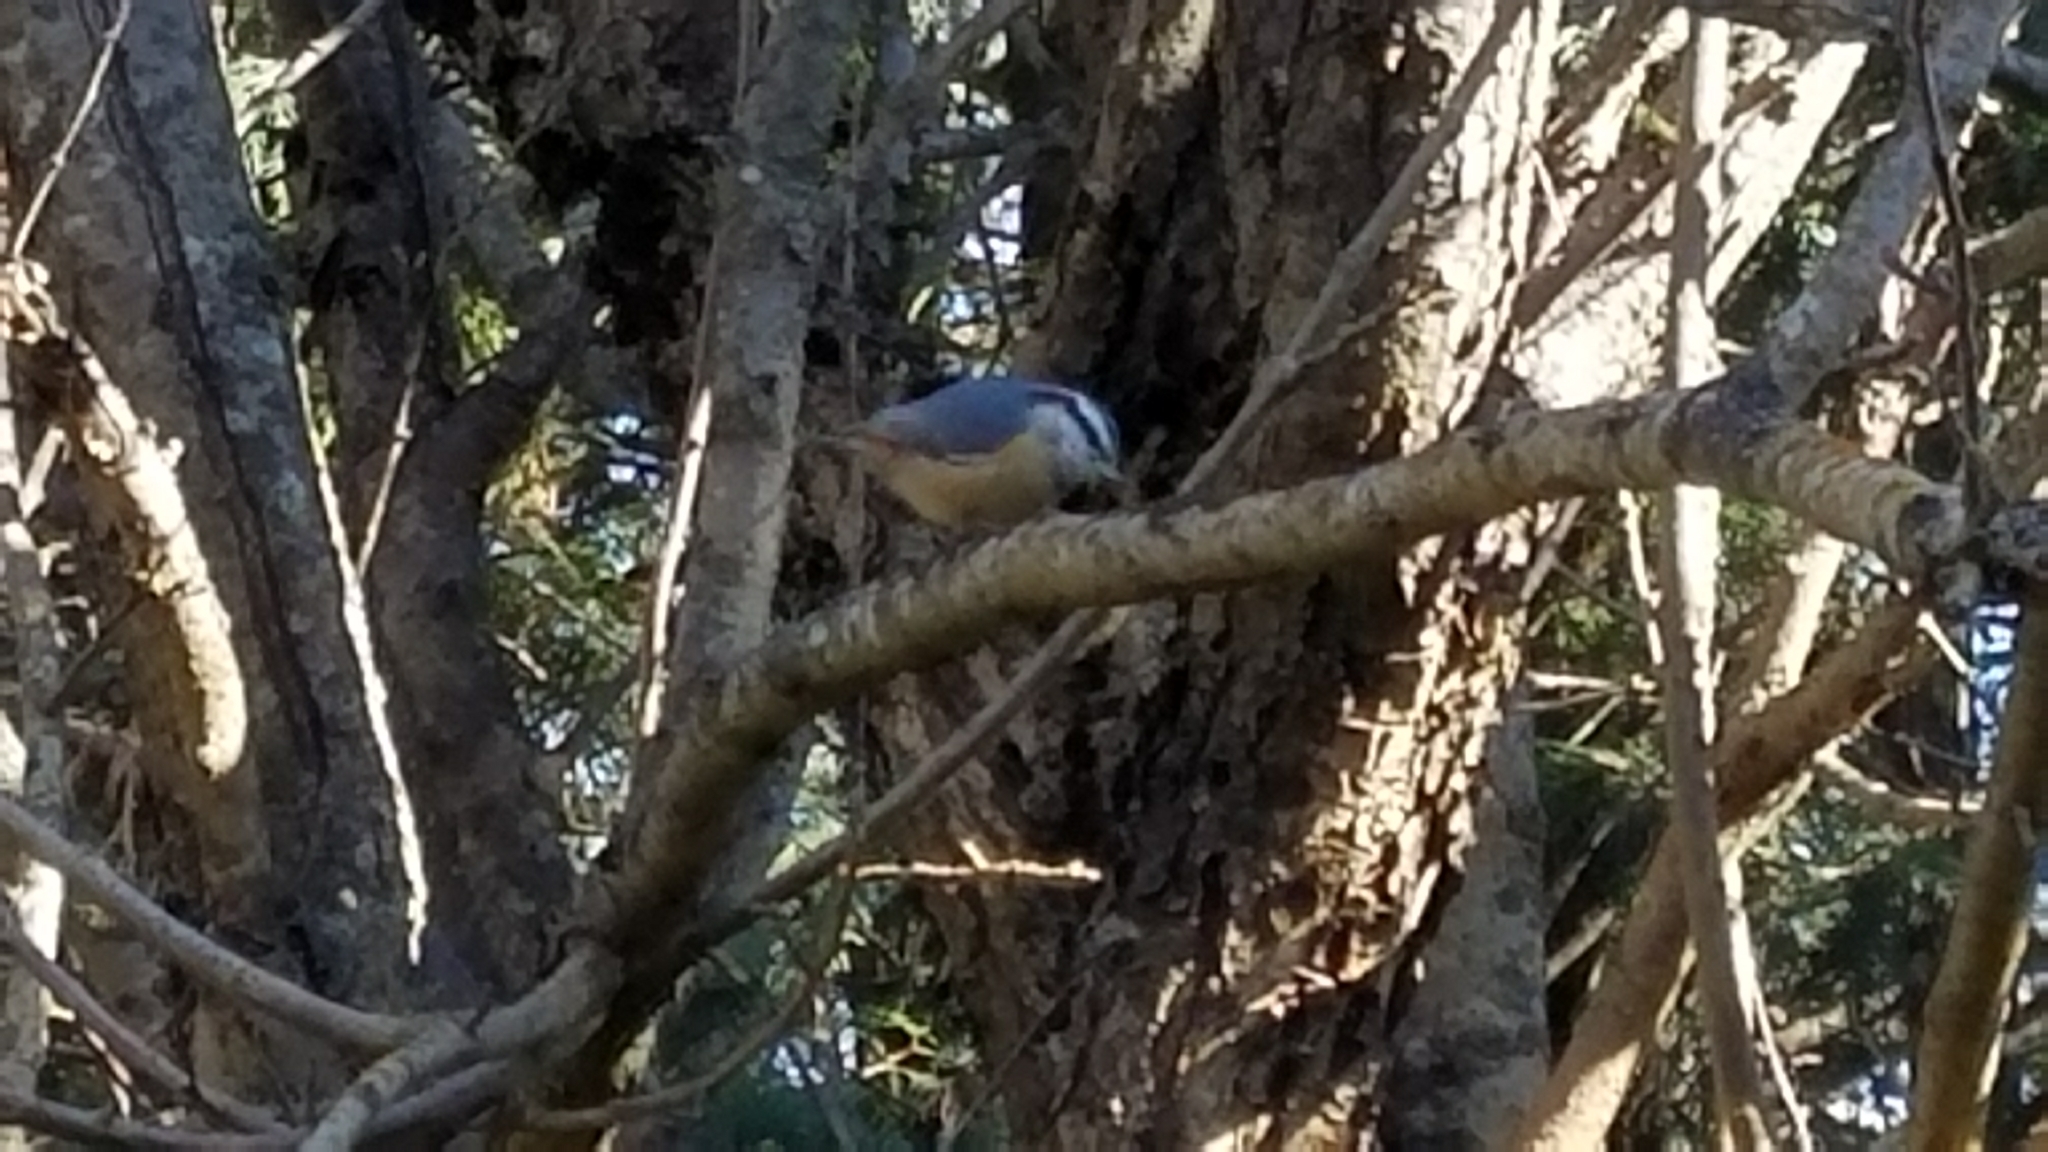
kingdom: Animalia
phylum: Chordata
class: Aves
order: Passeriformes
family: Sittidae
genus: Sitta
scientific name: Sitta canadensis
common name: Red-breasted nuthatch
